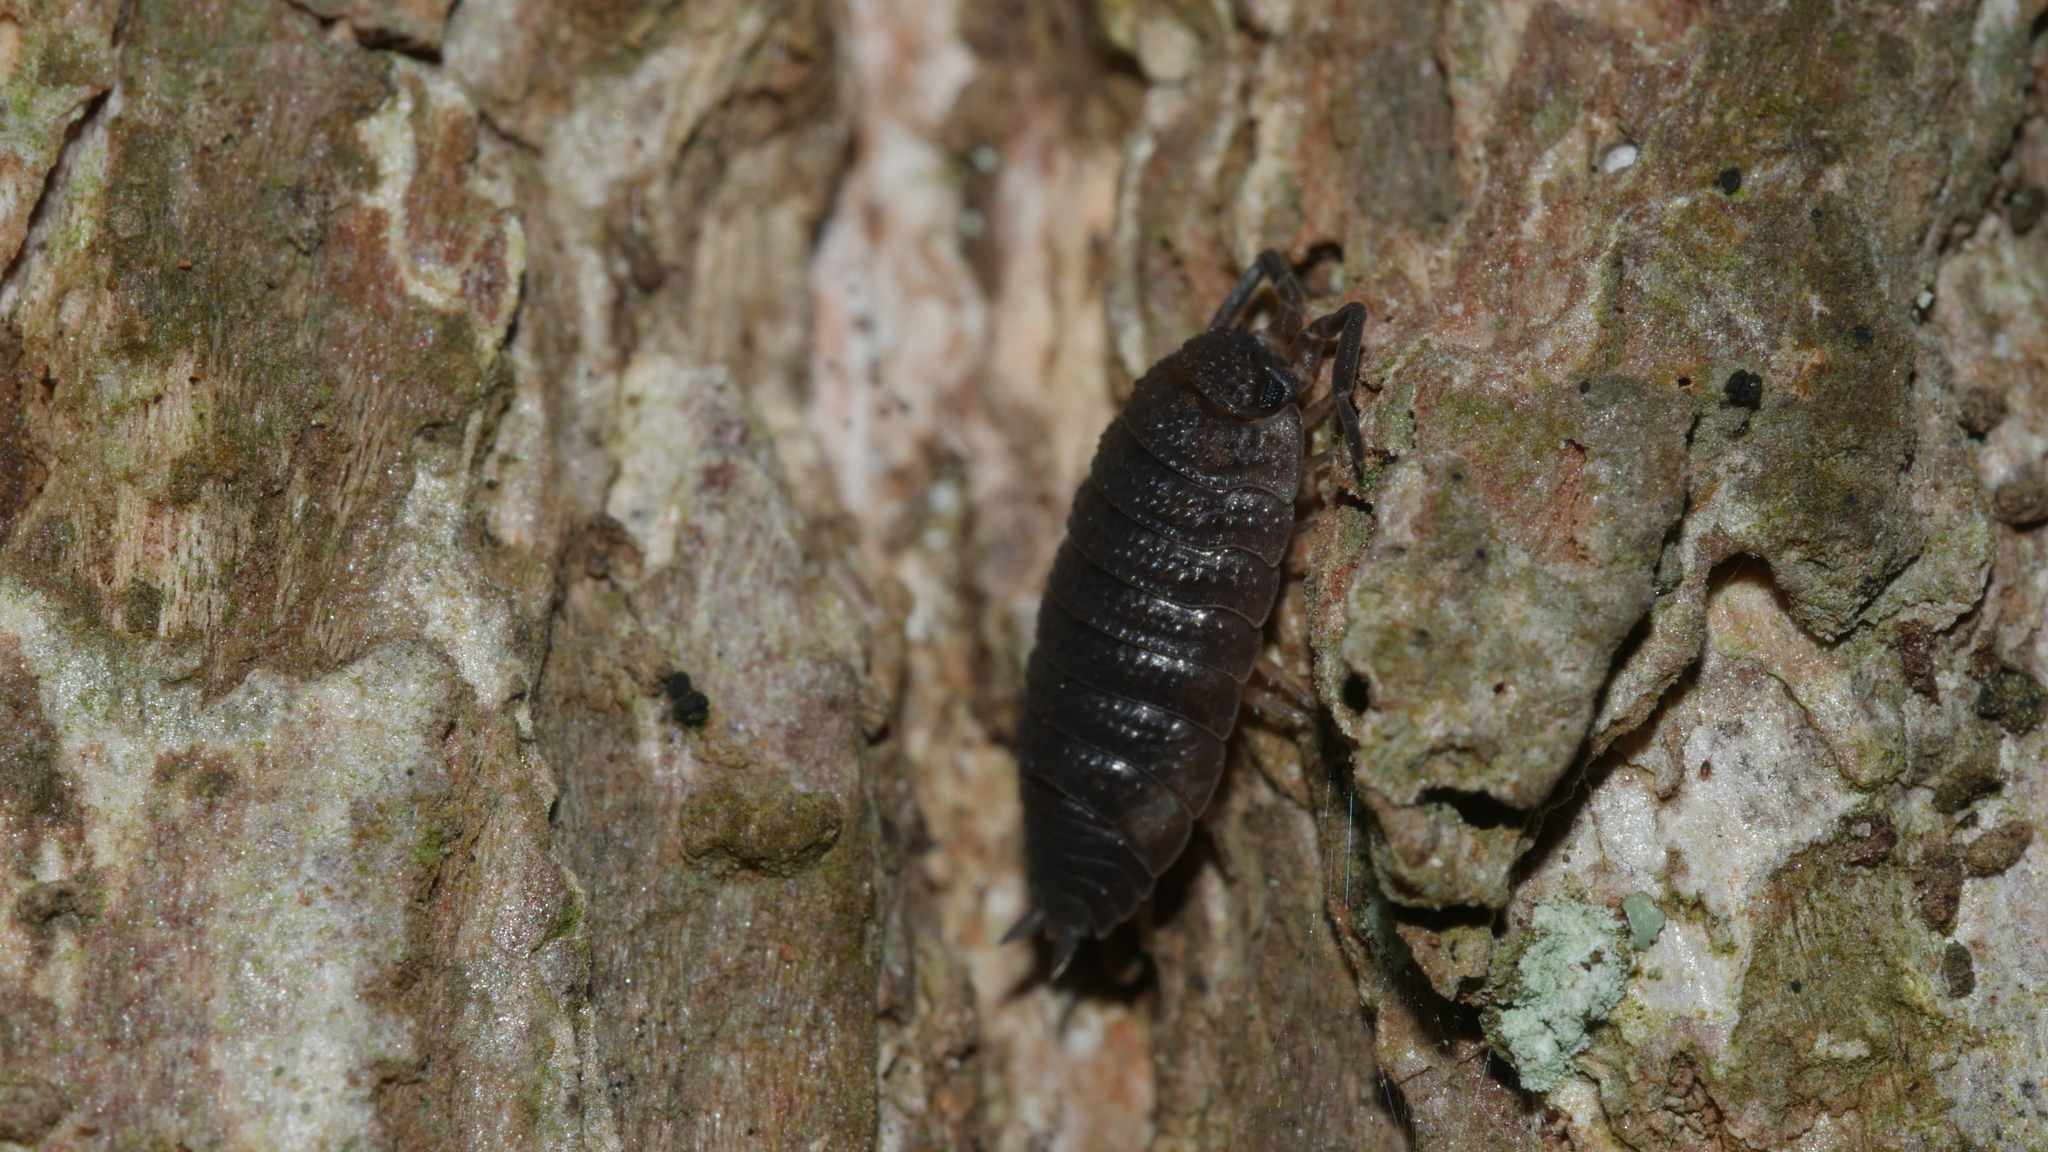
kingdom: Animalia
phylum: Arthropoda
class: Malacostraca
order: Isopoda
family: Porcellionidae
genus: Porcellio
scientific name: Porcellio scaber
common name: Common rough woodlouse
